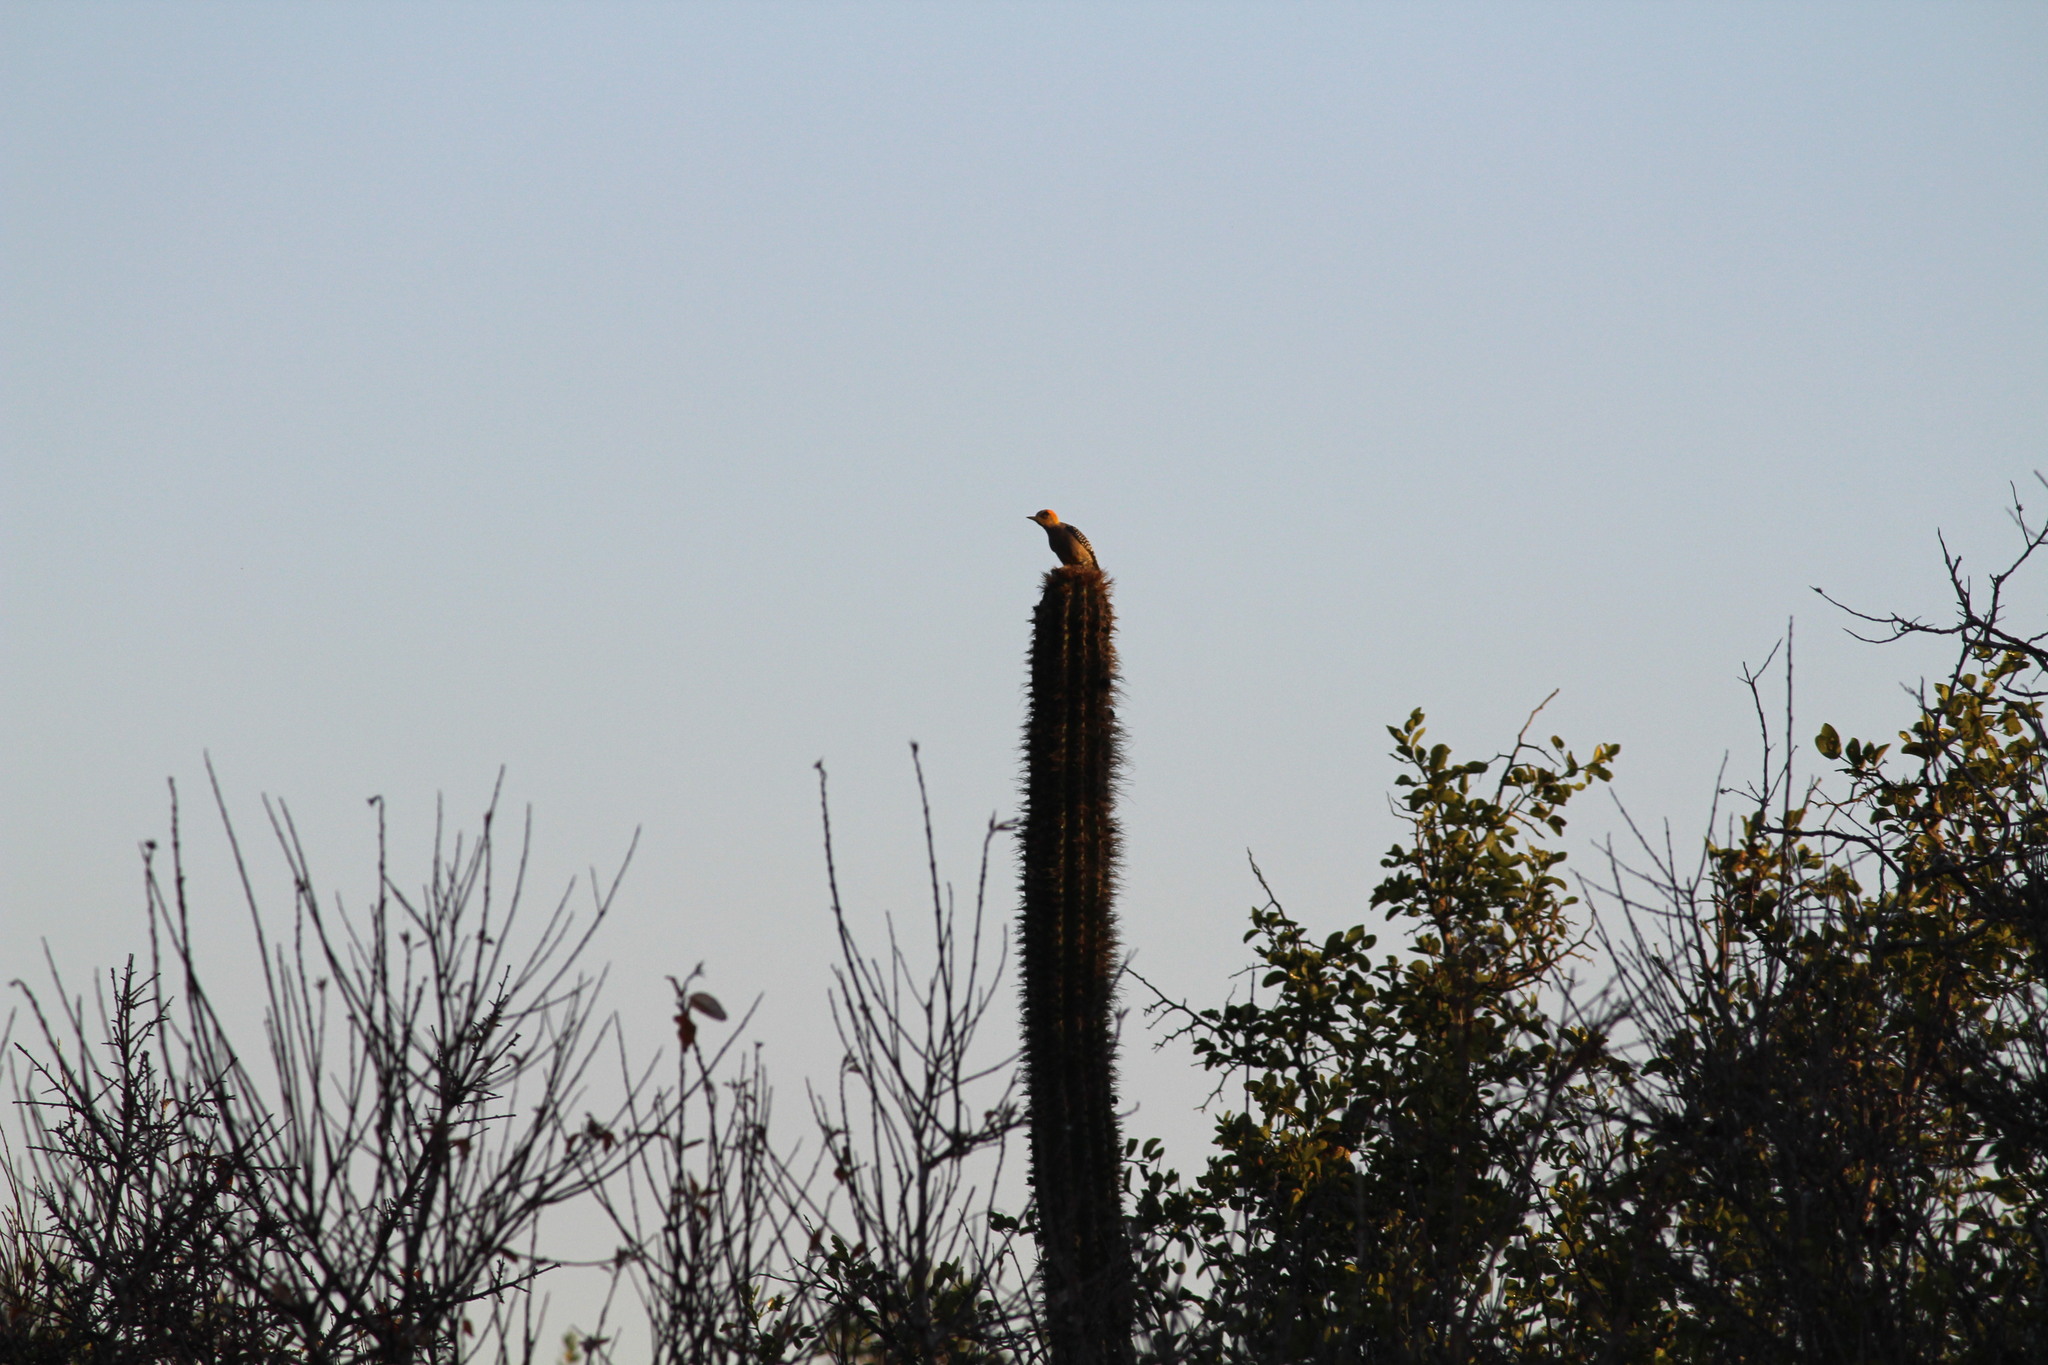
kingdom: Animalia
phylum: Chordata
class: Aves
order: Piciformes
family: Picidae
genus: Melanerpes
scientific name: Melanerpes chrysogenys
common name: Golden-cheeked woodpecker
